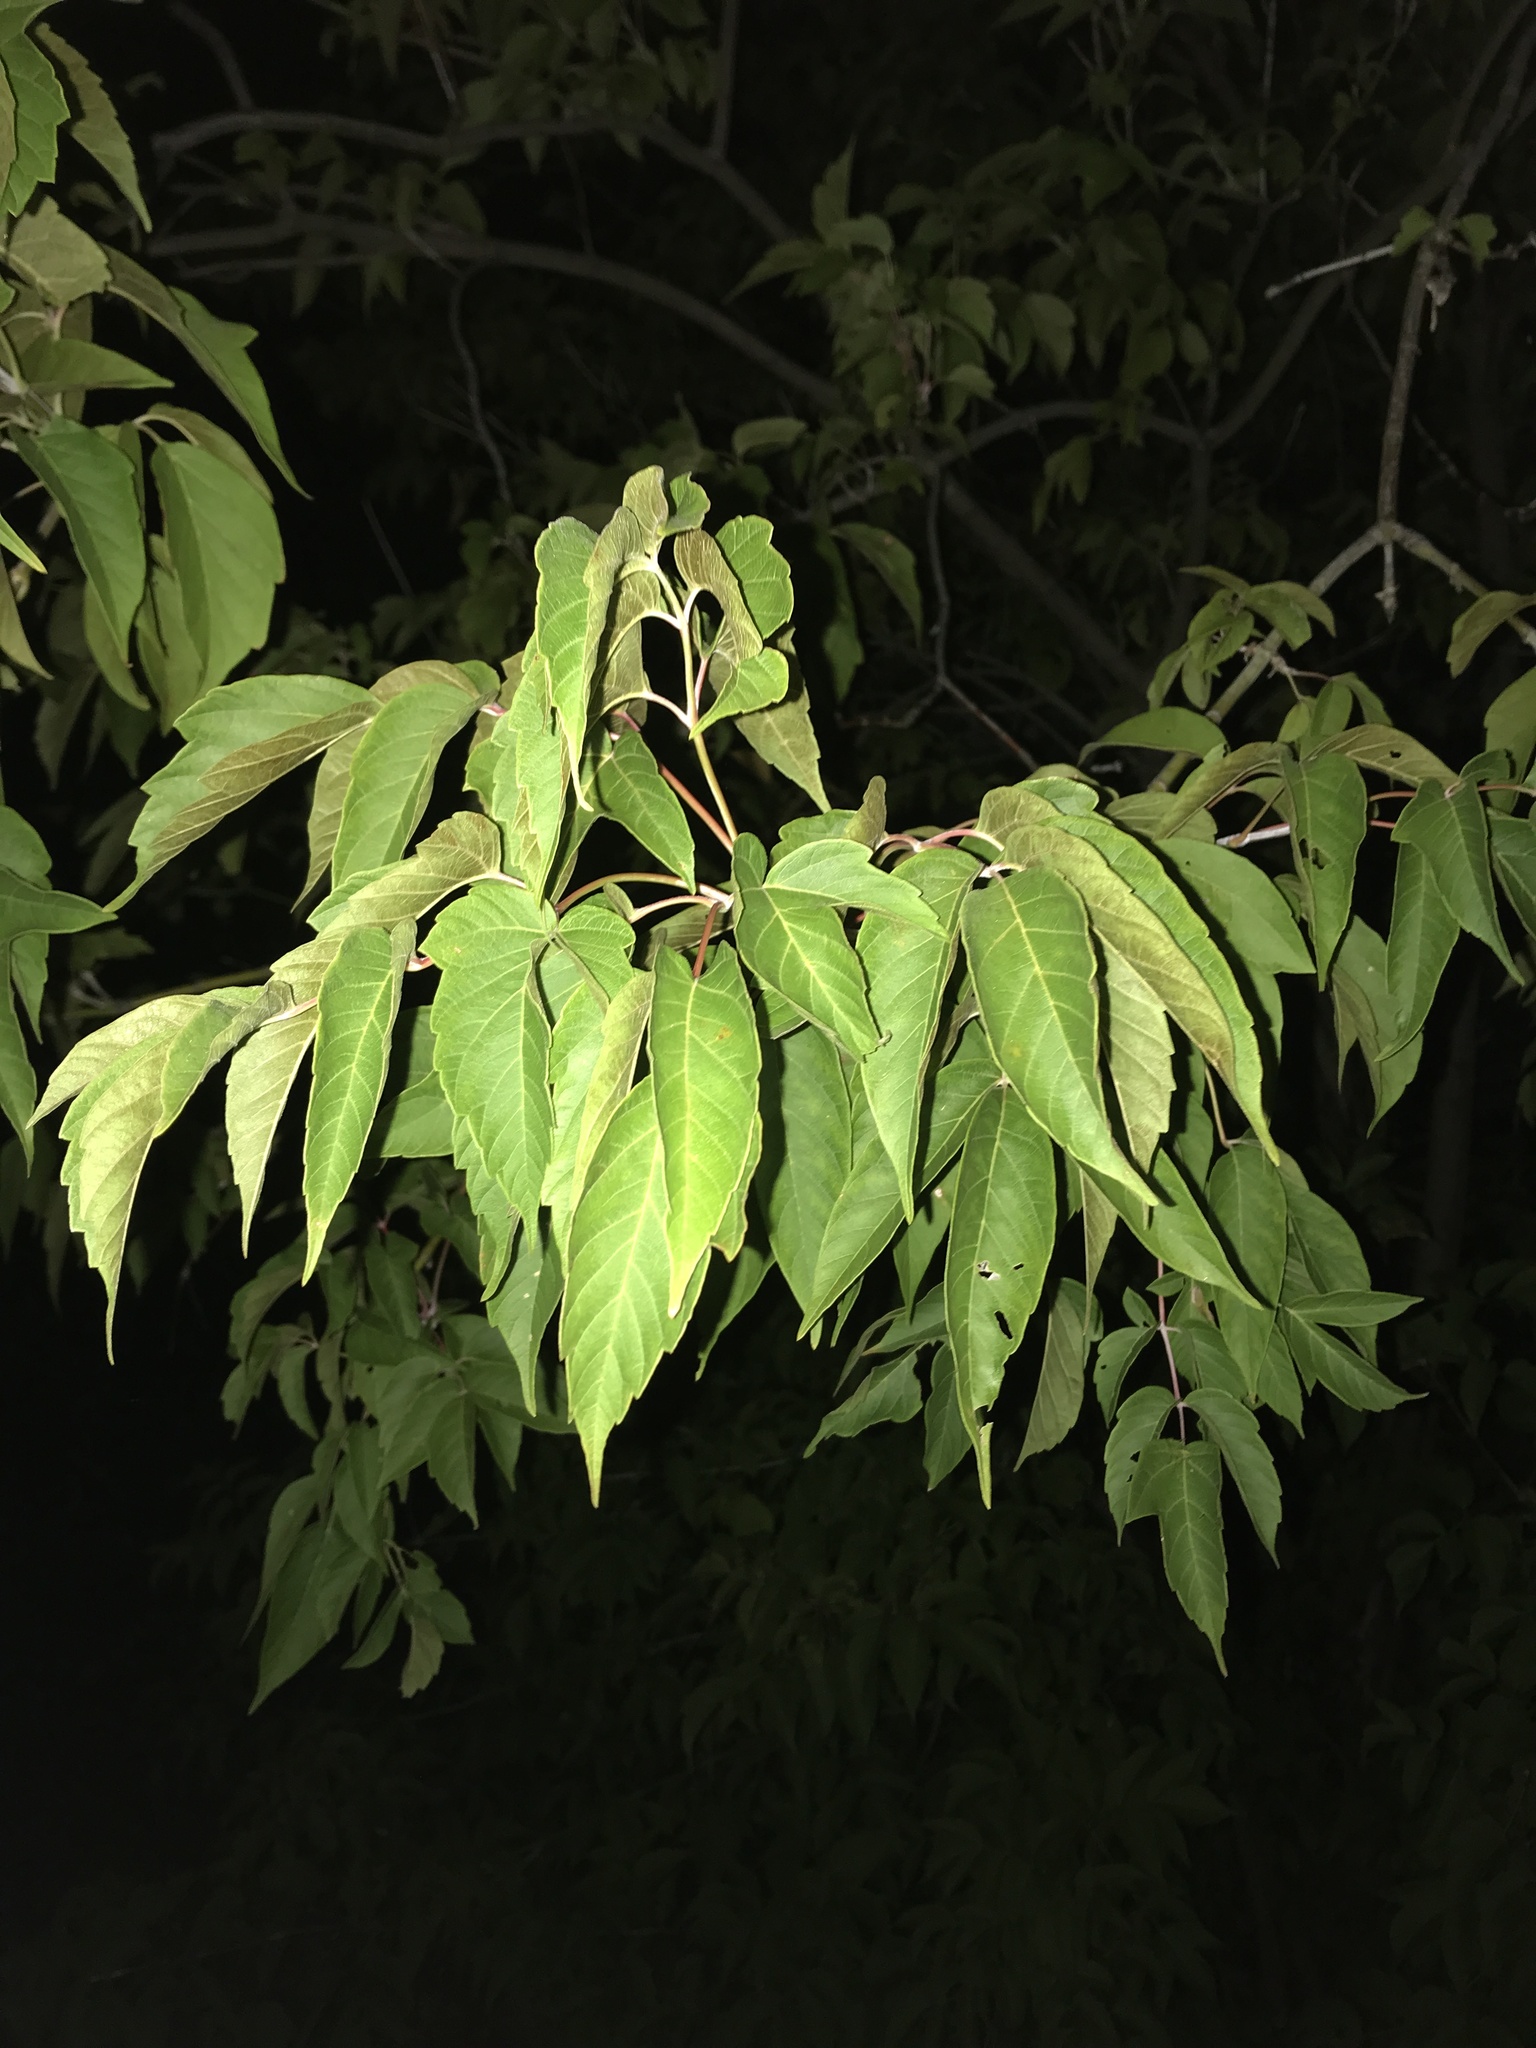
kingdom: Plantae
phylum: Tracheophyta
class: Magnoliopsida
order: Sapindales
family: Sapindaceae
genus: Acer
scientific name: Acer negundo
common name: Ashleaf maple
